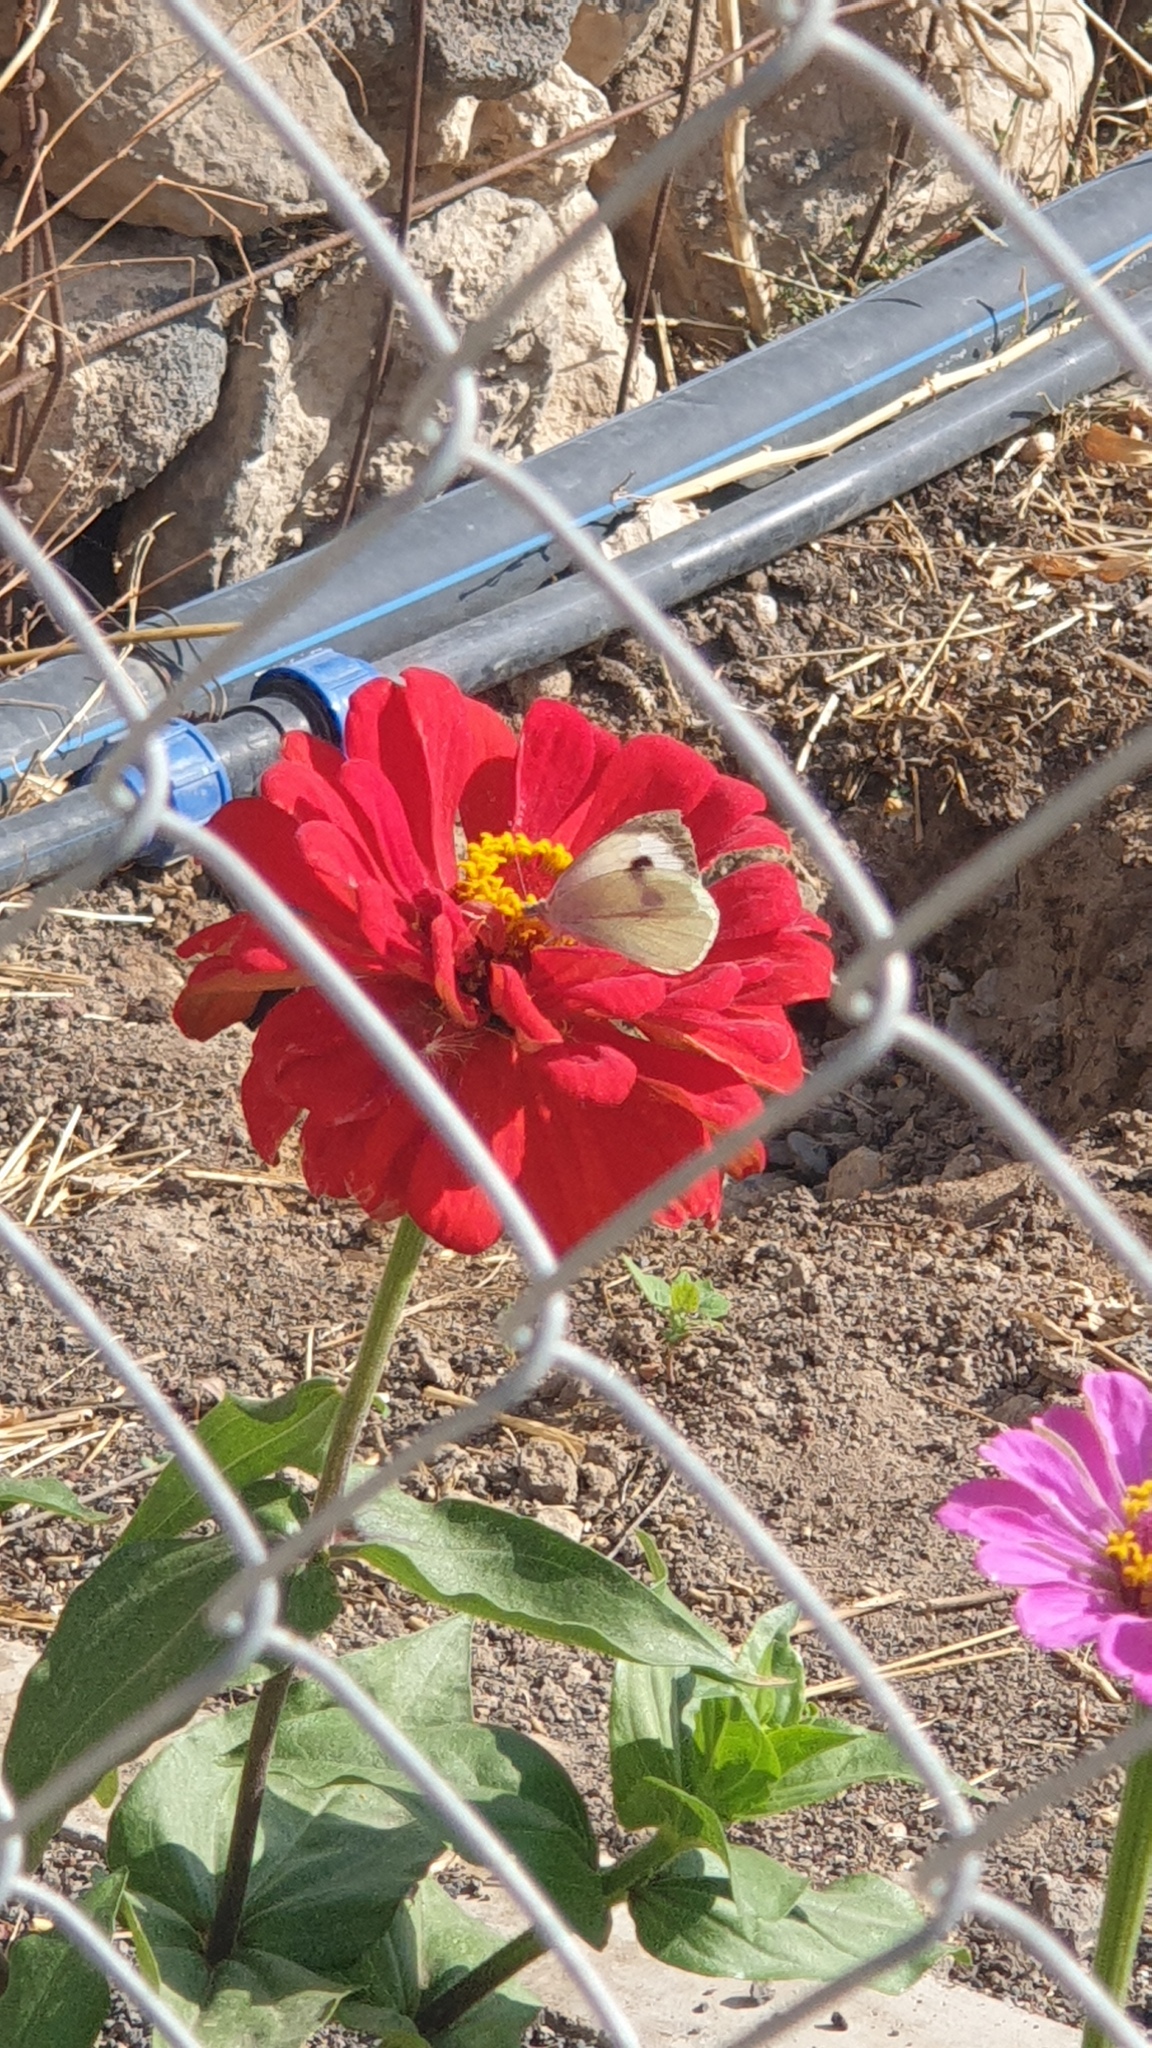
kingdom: Animalia
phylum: Arthropoda
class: Insecta
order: Lepidoptera
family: Pieridae
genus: Pieris
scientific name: Pieris brassicae
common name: Large white
